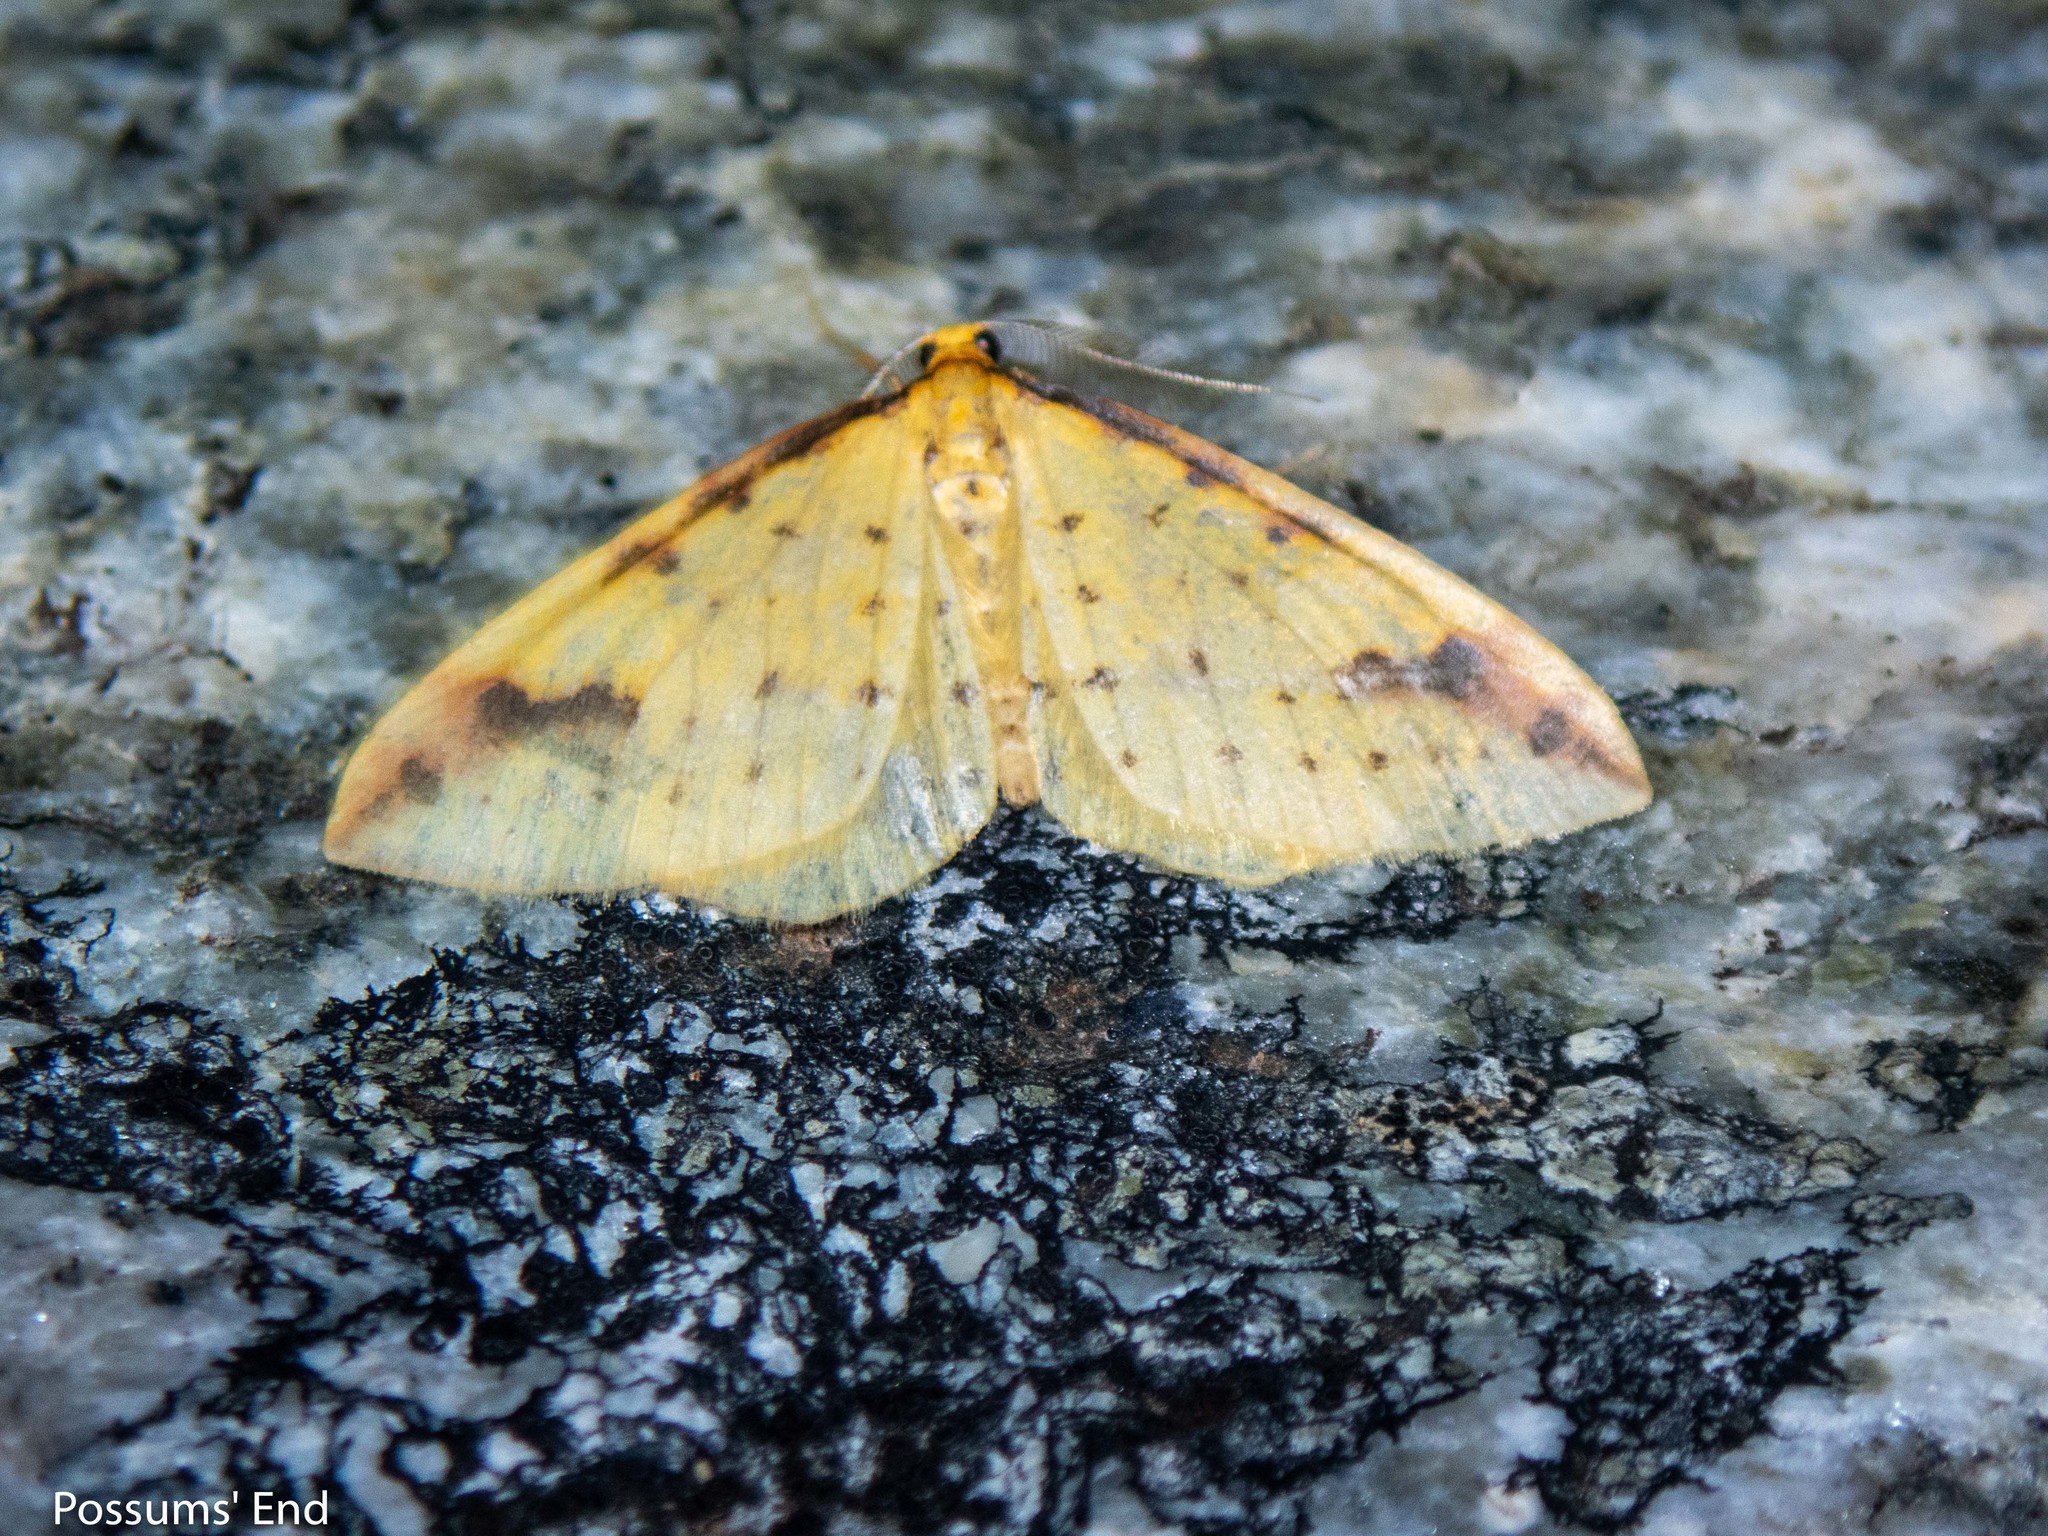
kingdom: Animalia
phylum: Arthropoda
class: Insecta
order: Lepidoptera
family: Geometridae
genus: Orthoclydon
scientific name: Orthoclydon chlorias
